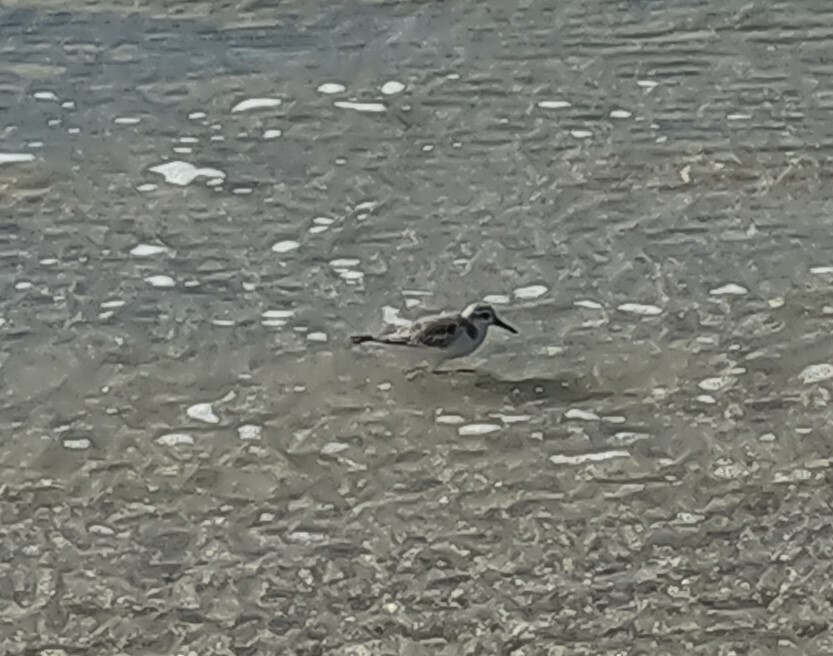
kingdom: Animalia
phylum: Chordata
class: Aves
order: Charadriiformes
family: Scolopacidae
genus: Calidris
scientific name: Calidris alba
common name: Sanderling
